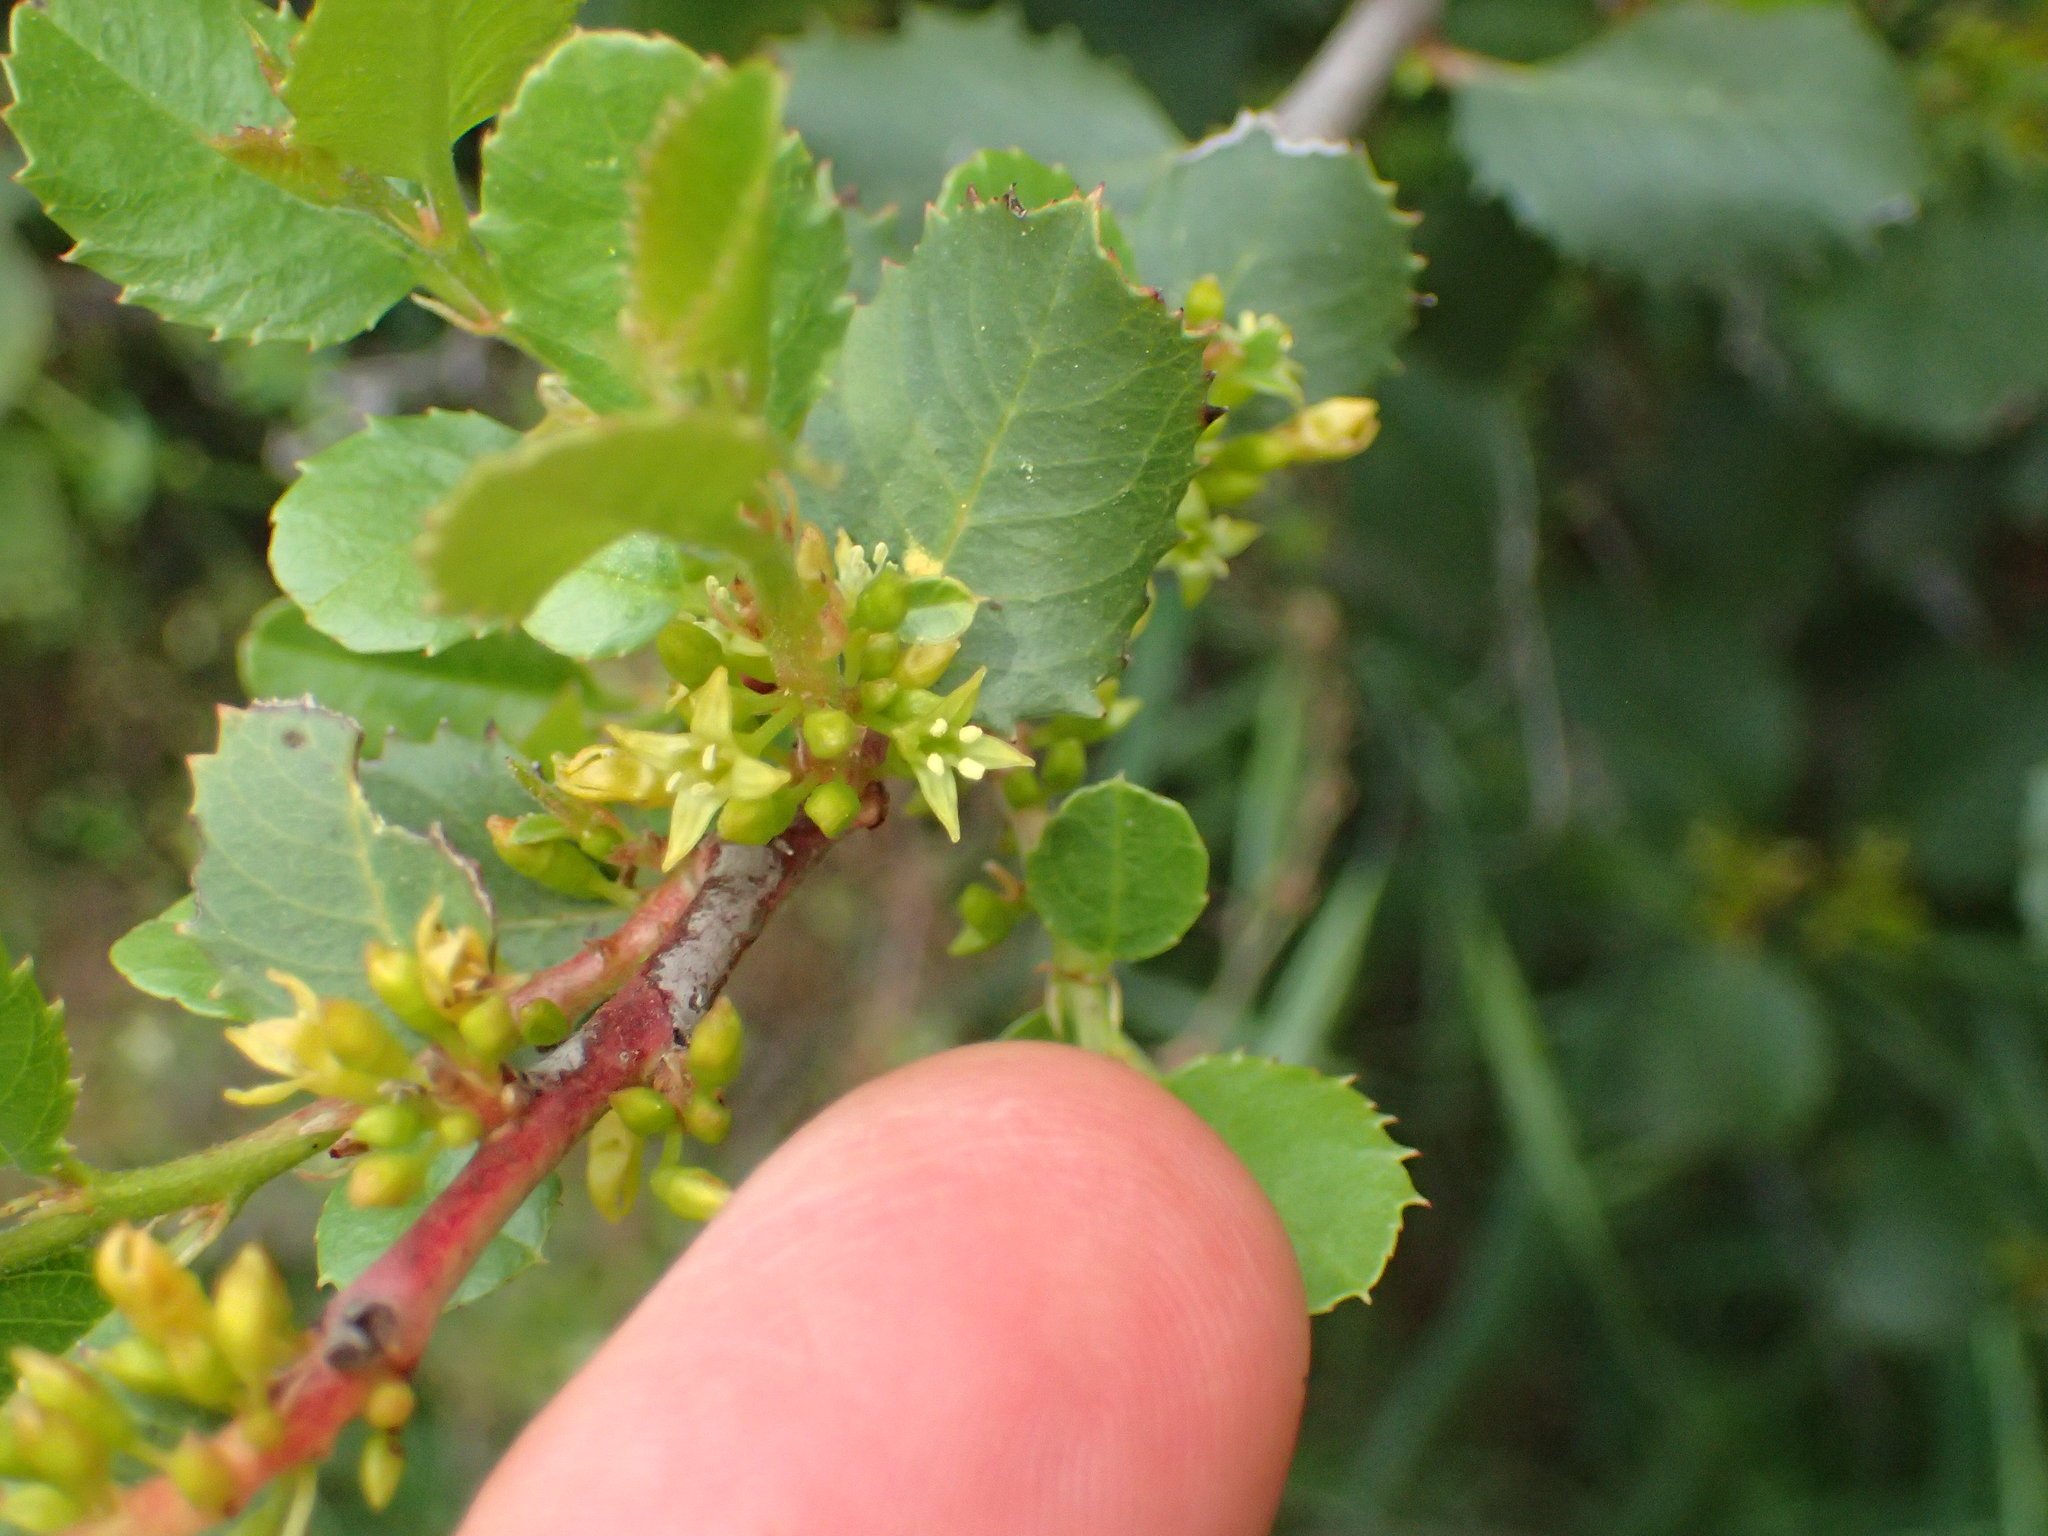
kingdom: Plantae
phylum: Tracheophyta
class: Magnoliopsida
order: Rosales
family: Rhamnaceae
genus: Endotropis
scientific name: Endotropis crocea
